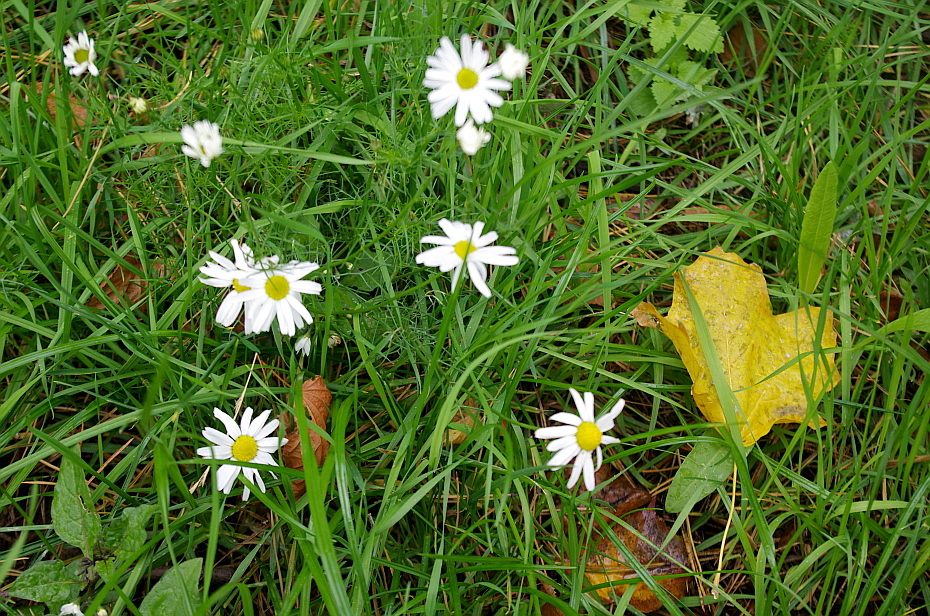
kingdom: Plantae
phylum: Tracheophyta
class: Magnoliopsida
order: Asterales
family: Asteraceae
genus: Tripleurospermum
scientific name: Tripleurospermum inodorum
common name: Scentless mayweed
